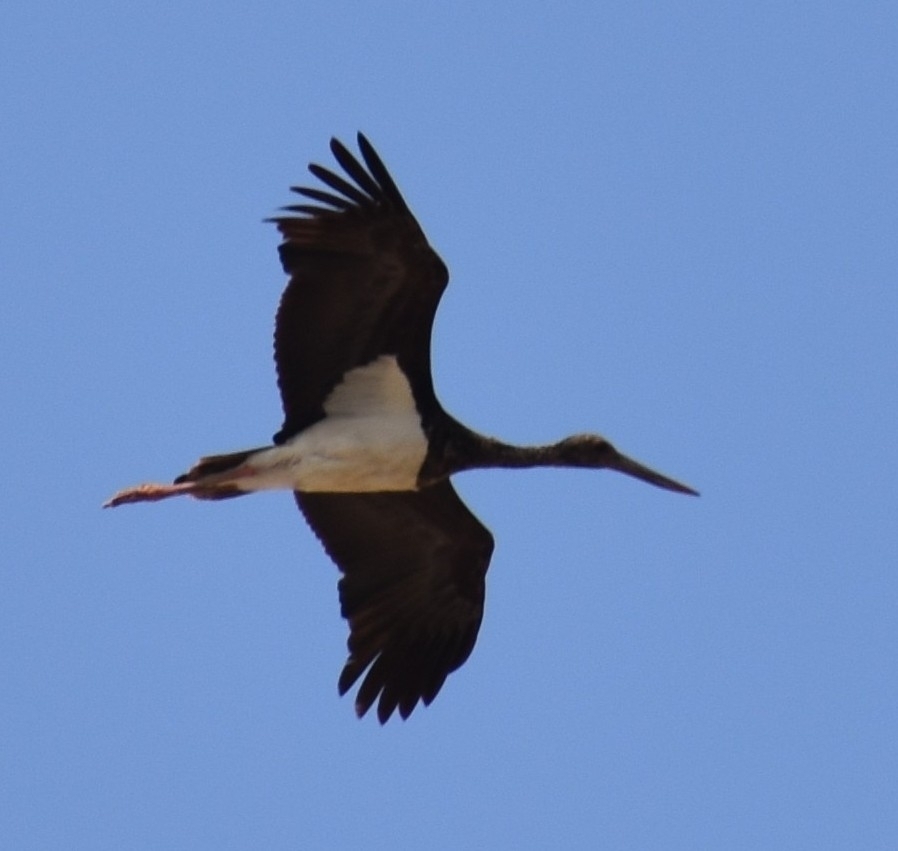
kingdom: Animalia
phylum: Chordata
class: Aves
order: Ciconiiformes
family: Ciconiidae
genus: Ciconia
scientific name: Ciconia nigra
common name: Black stork
